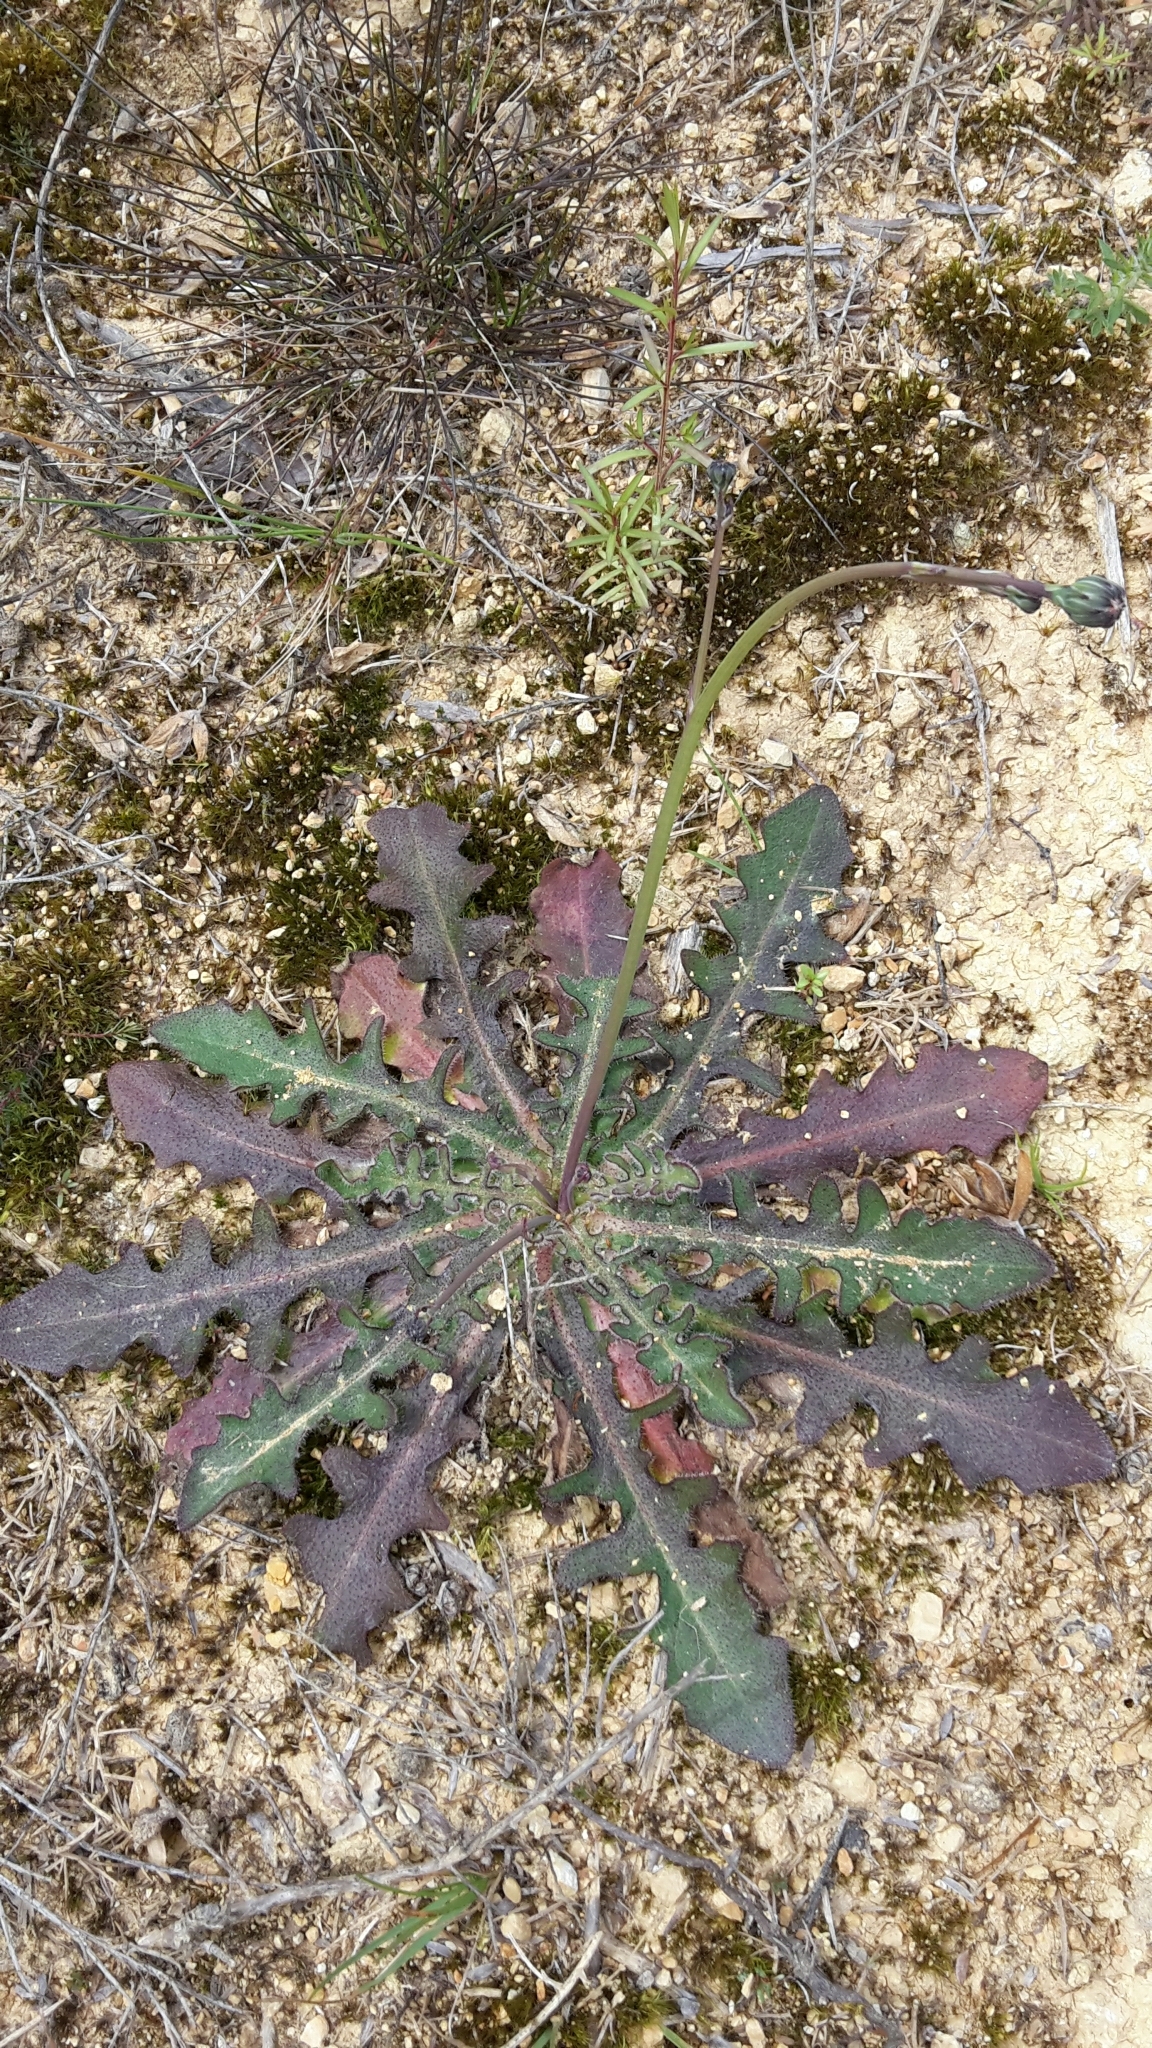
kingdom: Plantae
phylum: Tracheophyta
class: Magnoliopsida
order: Asterales
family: Asteraceae
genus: Hypochaeris
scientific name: Hypochaeris radicata
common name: Flatweed
